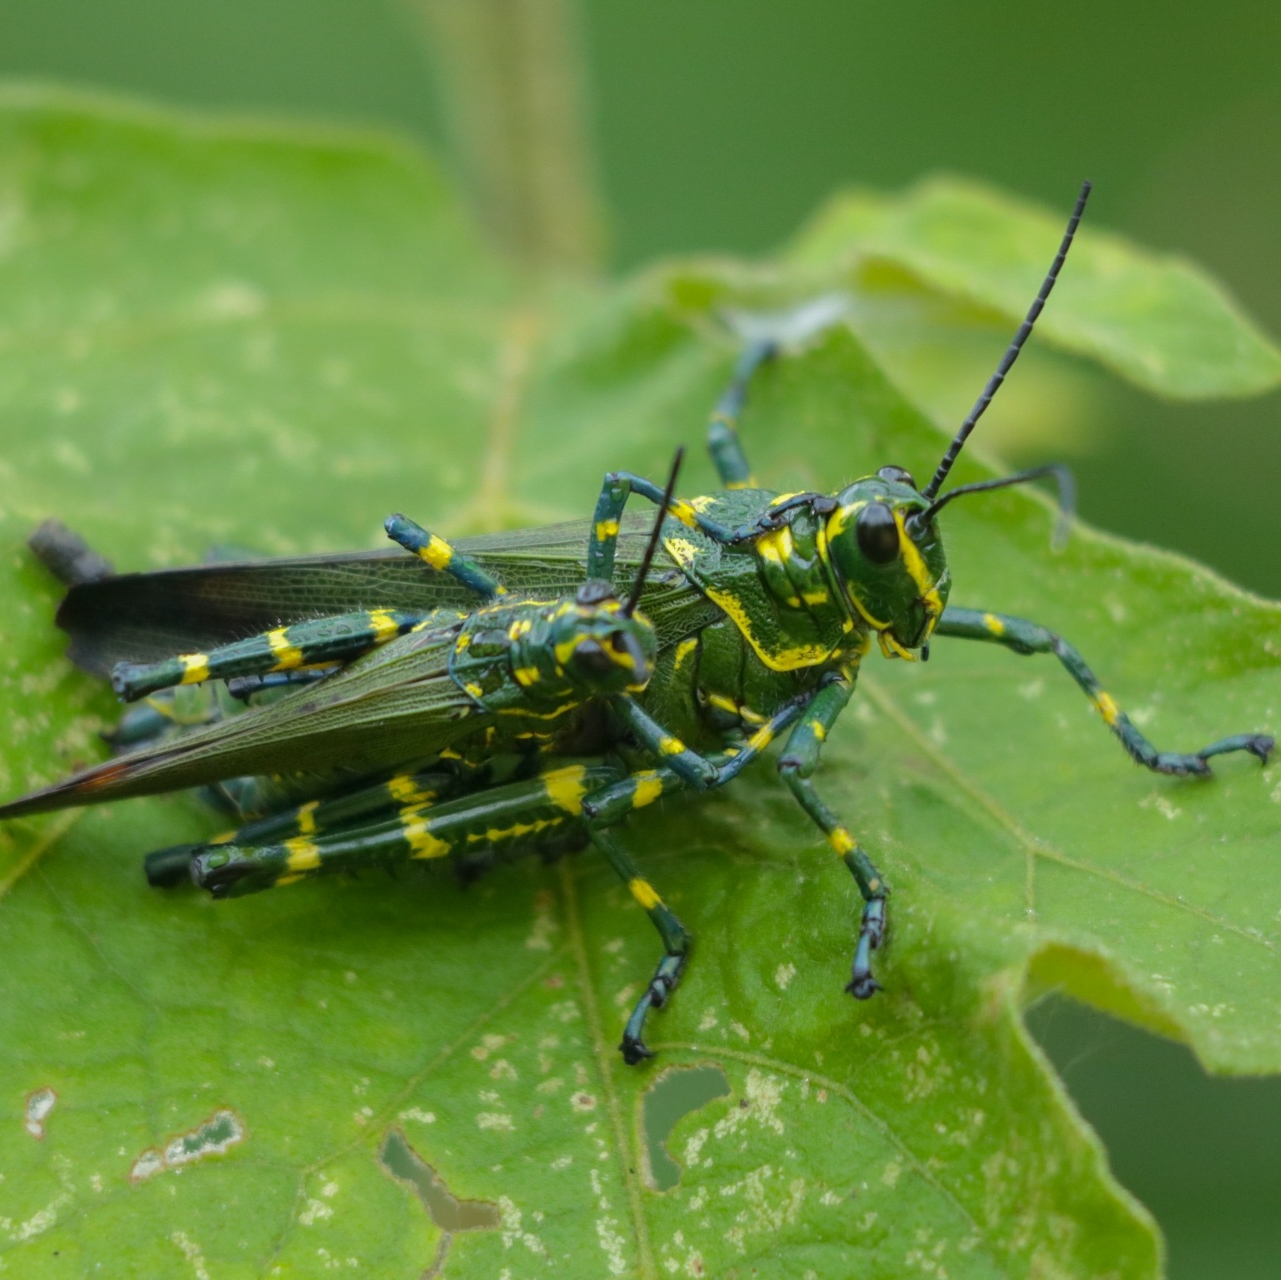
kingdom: Animalia
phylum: Arthropoda
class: Insecta
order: Orthoptera
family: Romaleidae
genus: Chromacris
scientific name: Chromacris speciosa
